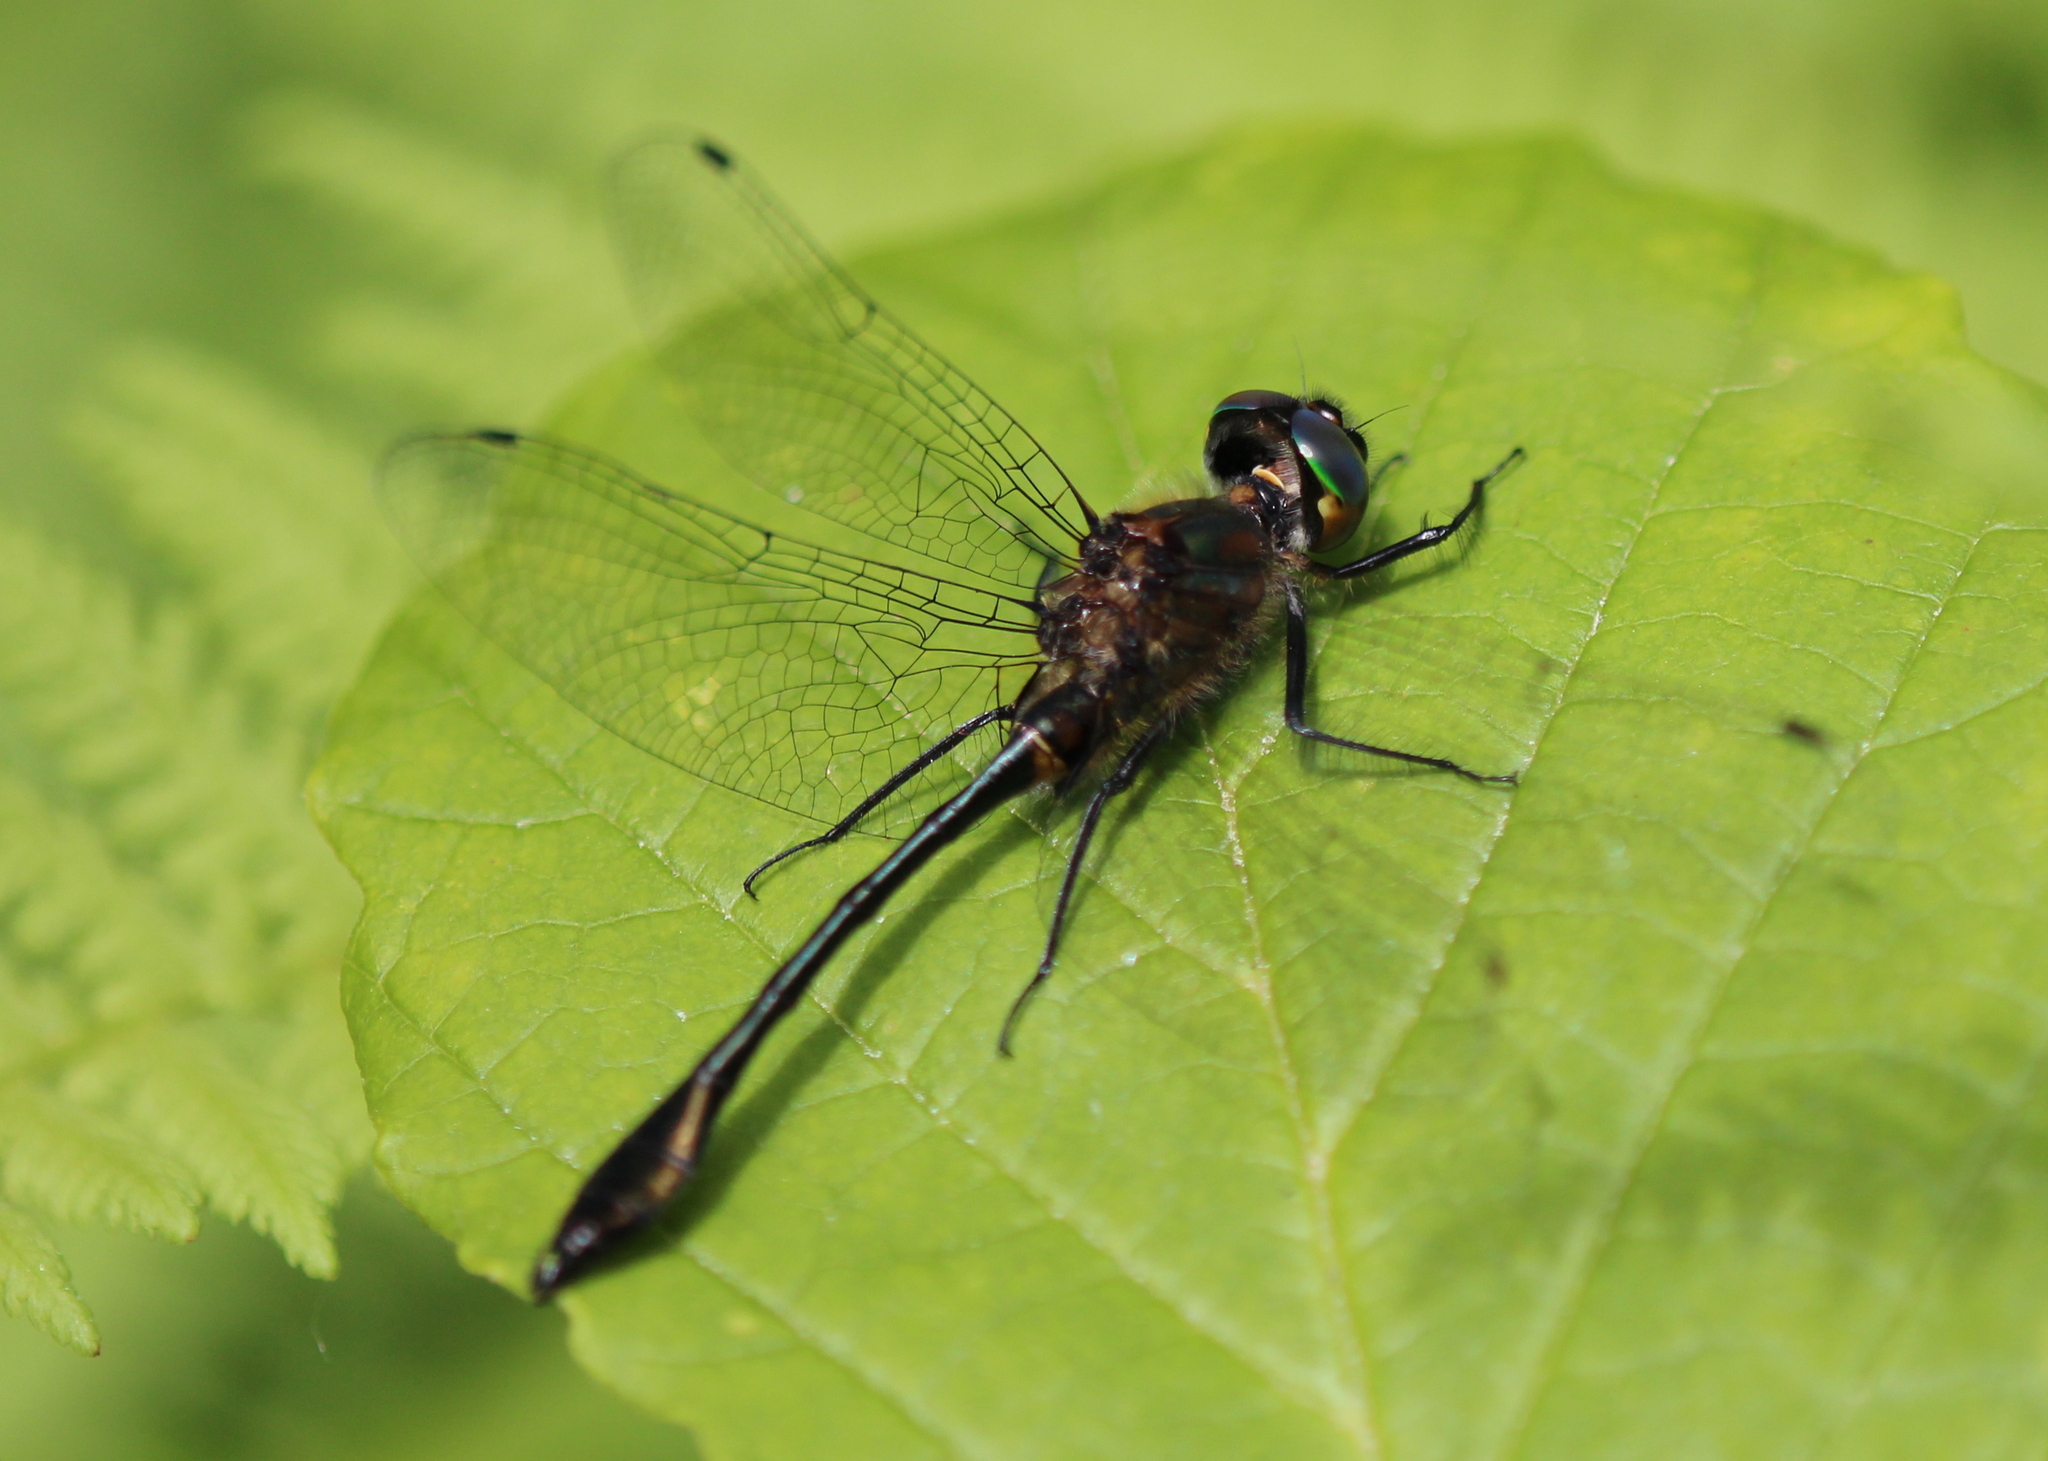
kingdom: Animalia
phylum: Arthropoda
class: Insecta
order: Odonata
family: Corduliidae
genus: Dorocordulia
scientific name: Dorocordulia libera
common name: Racket-tailed emerald
